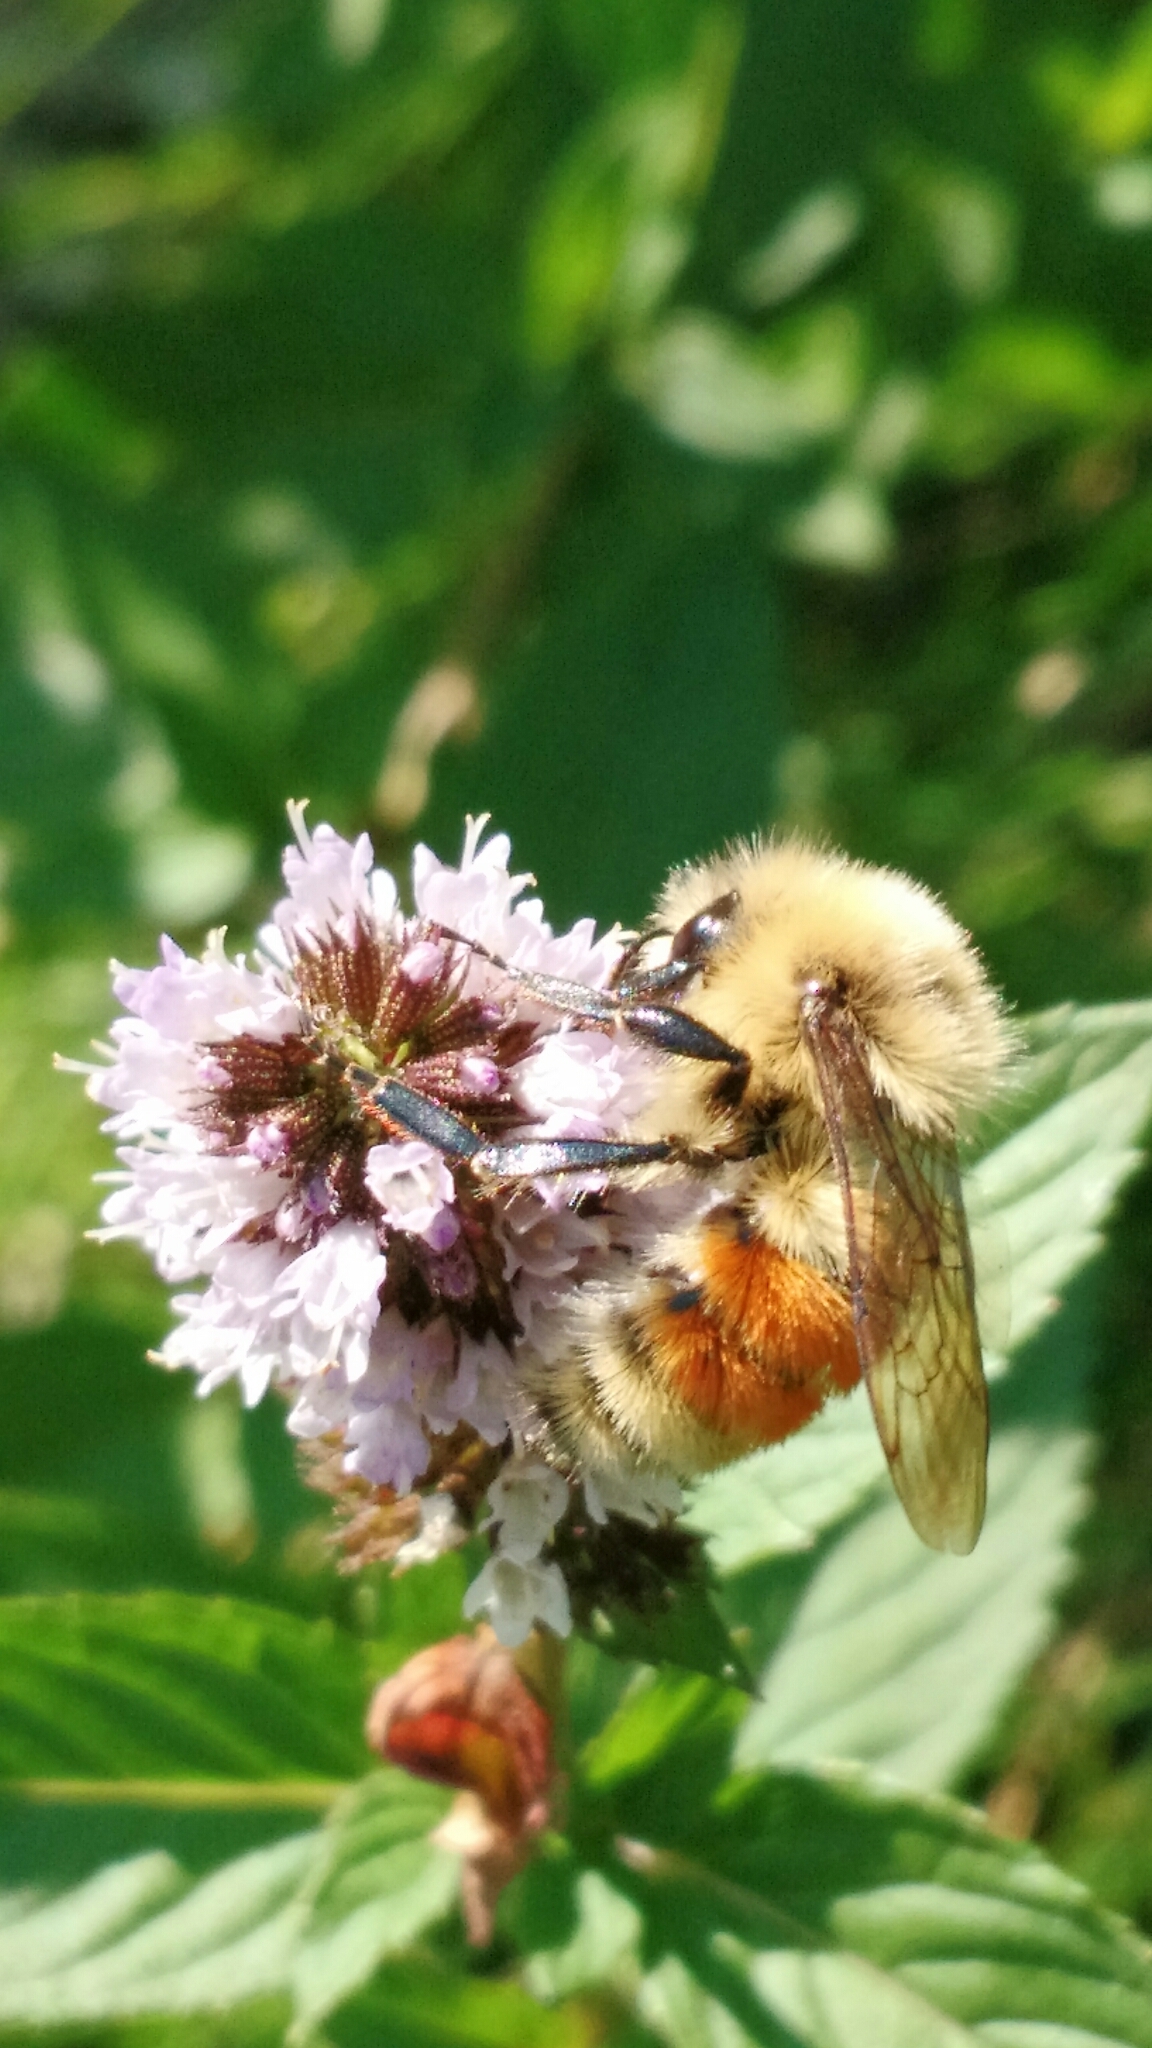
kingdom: Animalia
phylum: Arthropoda
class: Insecta
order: Hymenoptera
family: Apidae
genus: Bombus
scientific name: Bombus huntii
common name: Hunt bumble bee
